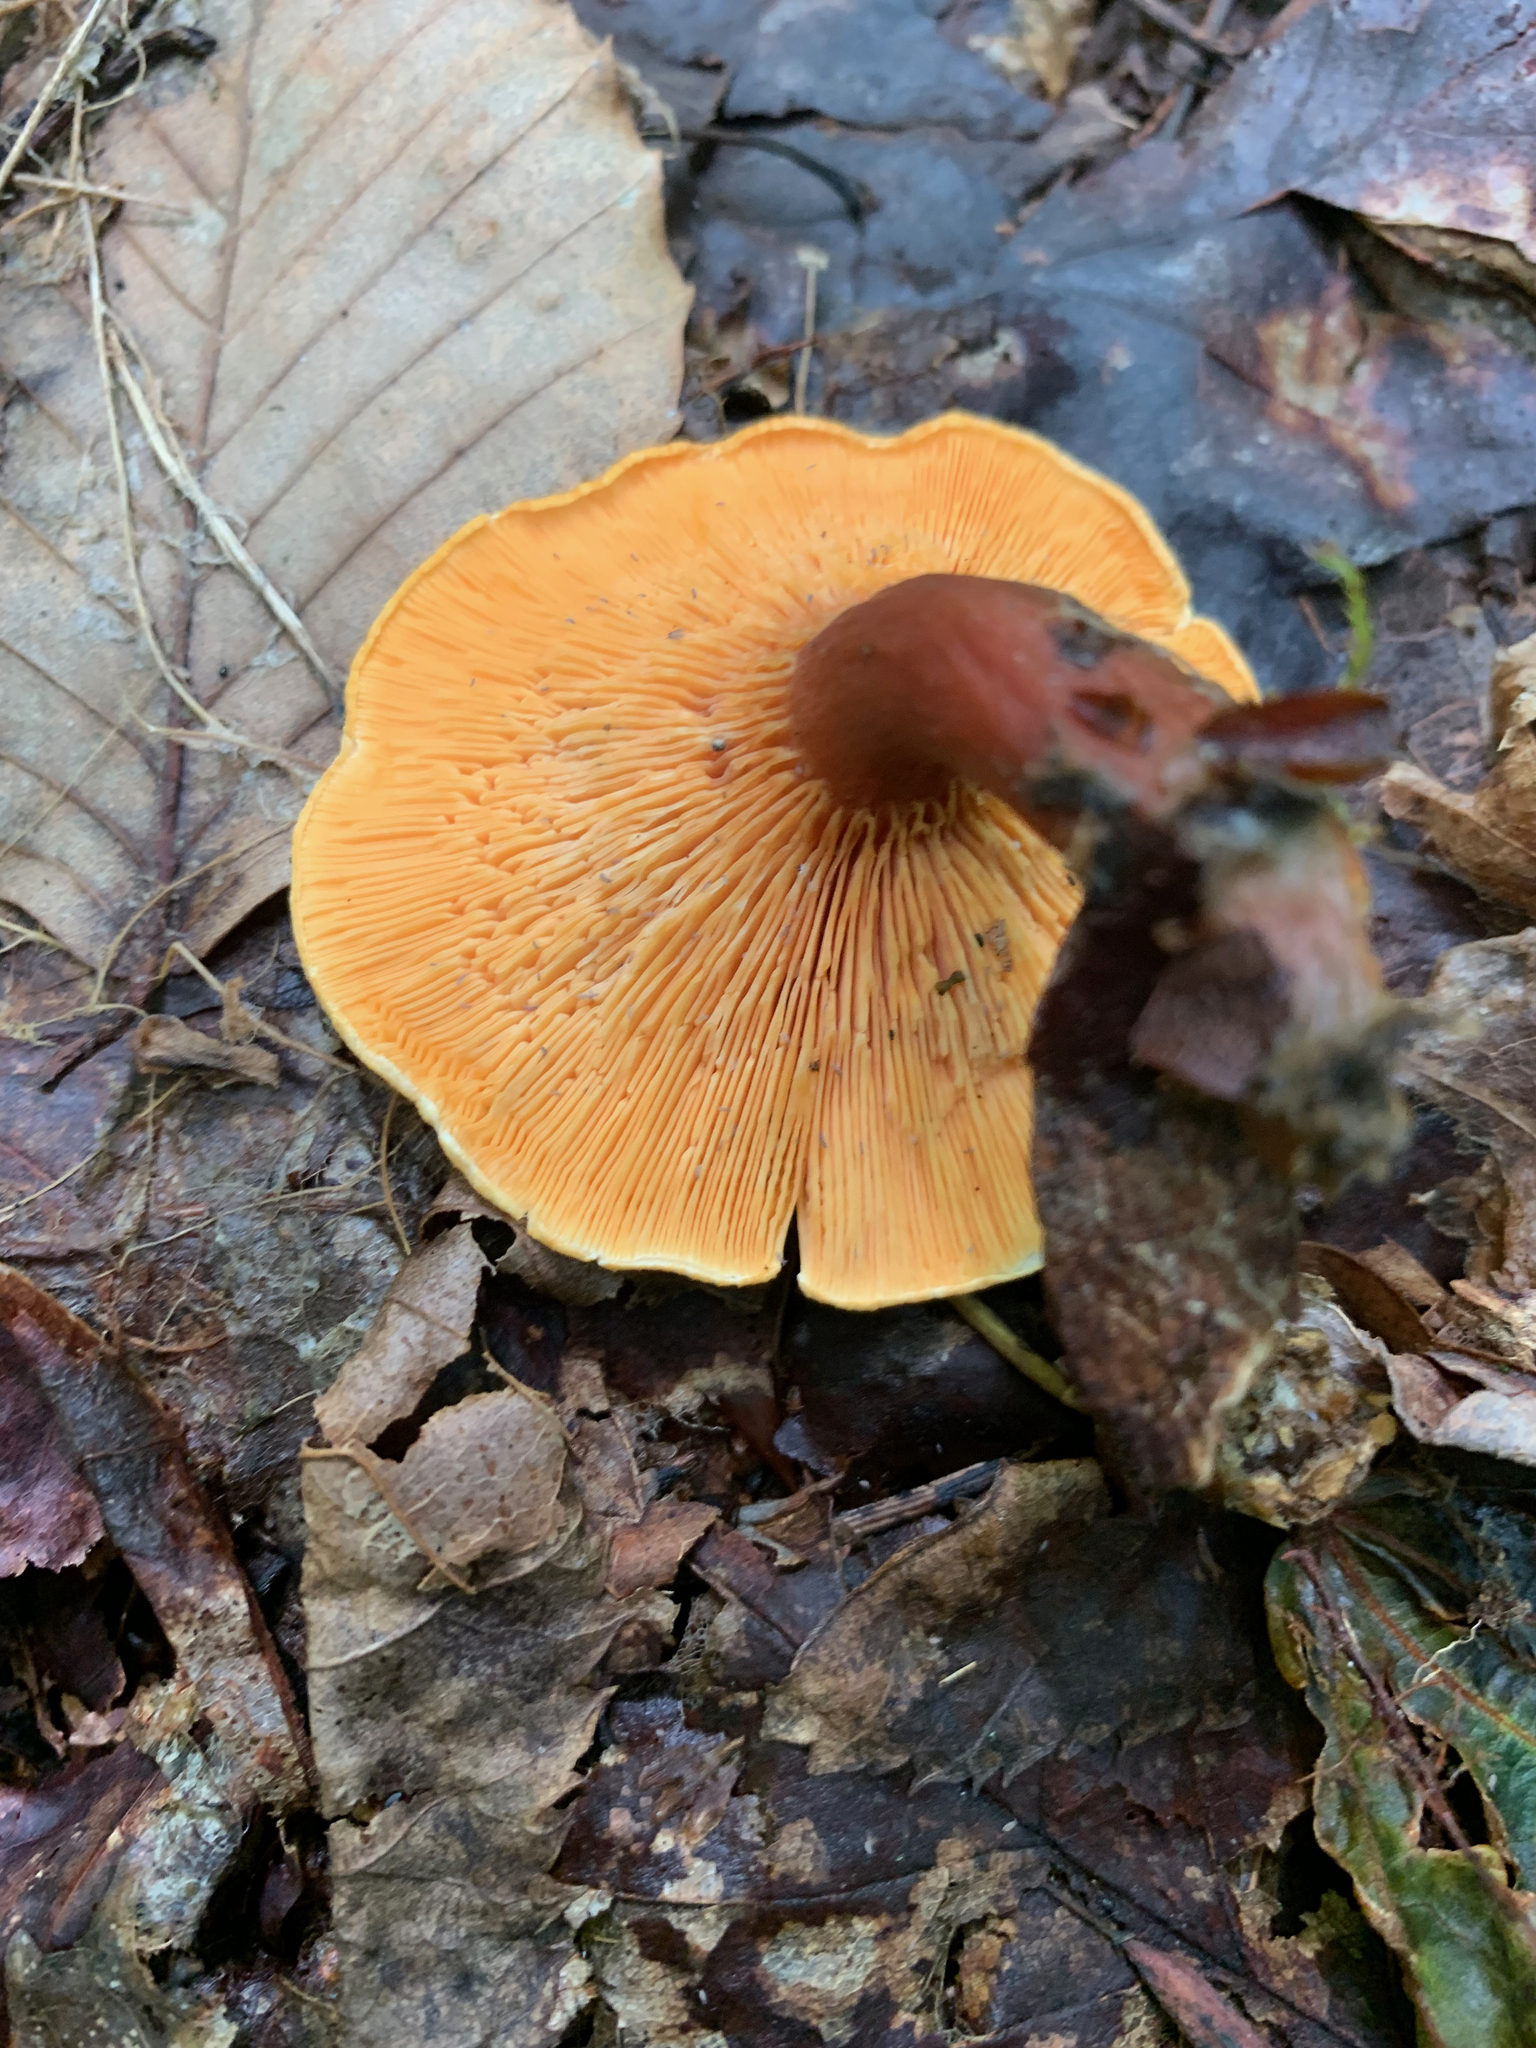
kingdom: Fungi
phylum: Basidiomycota
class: Agaricomycetes
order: Boletales
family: Hygrophoropsidaceae
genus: Hygrophoropsis
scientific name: Hygrophoropsis aurantiaca
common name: False chanterelle
